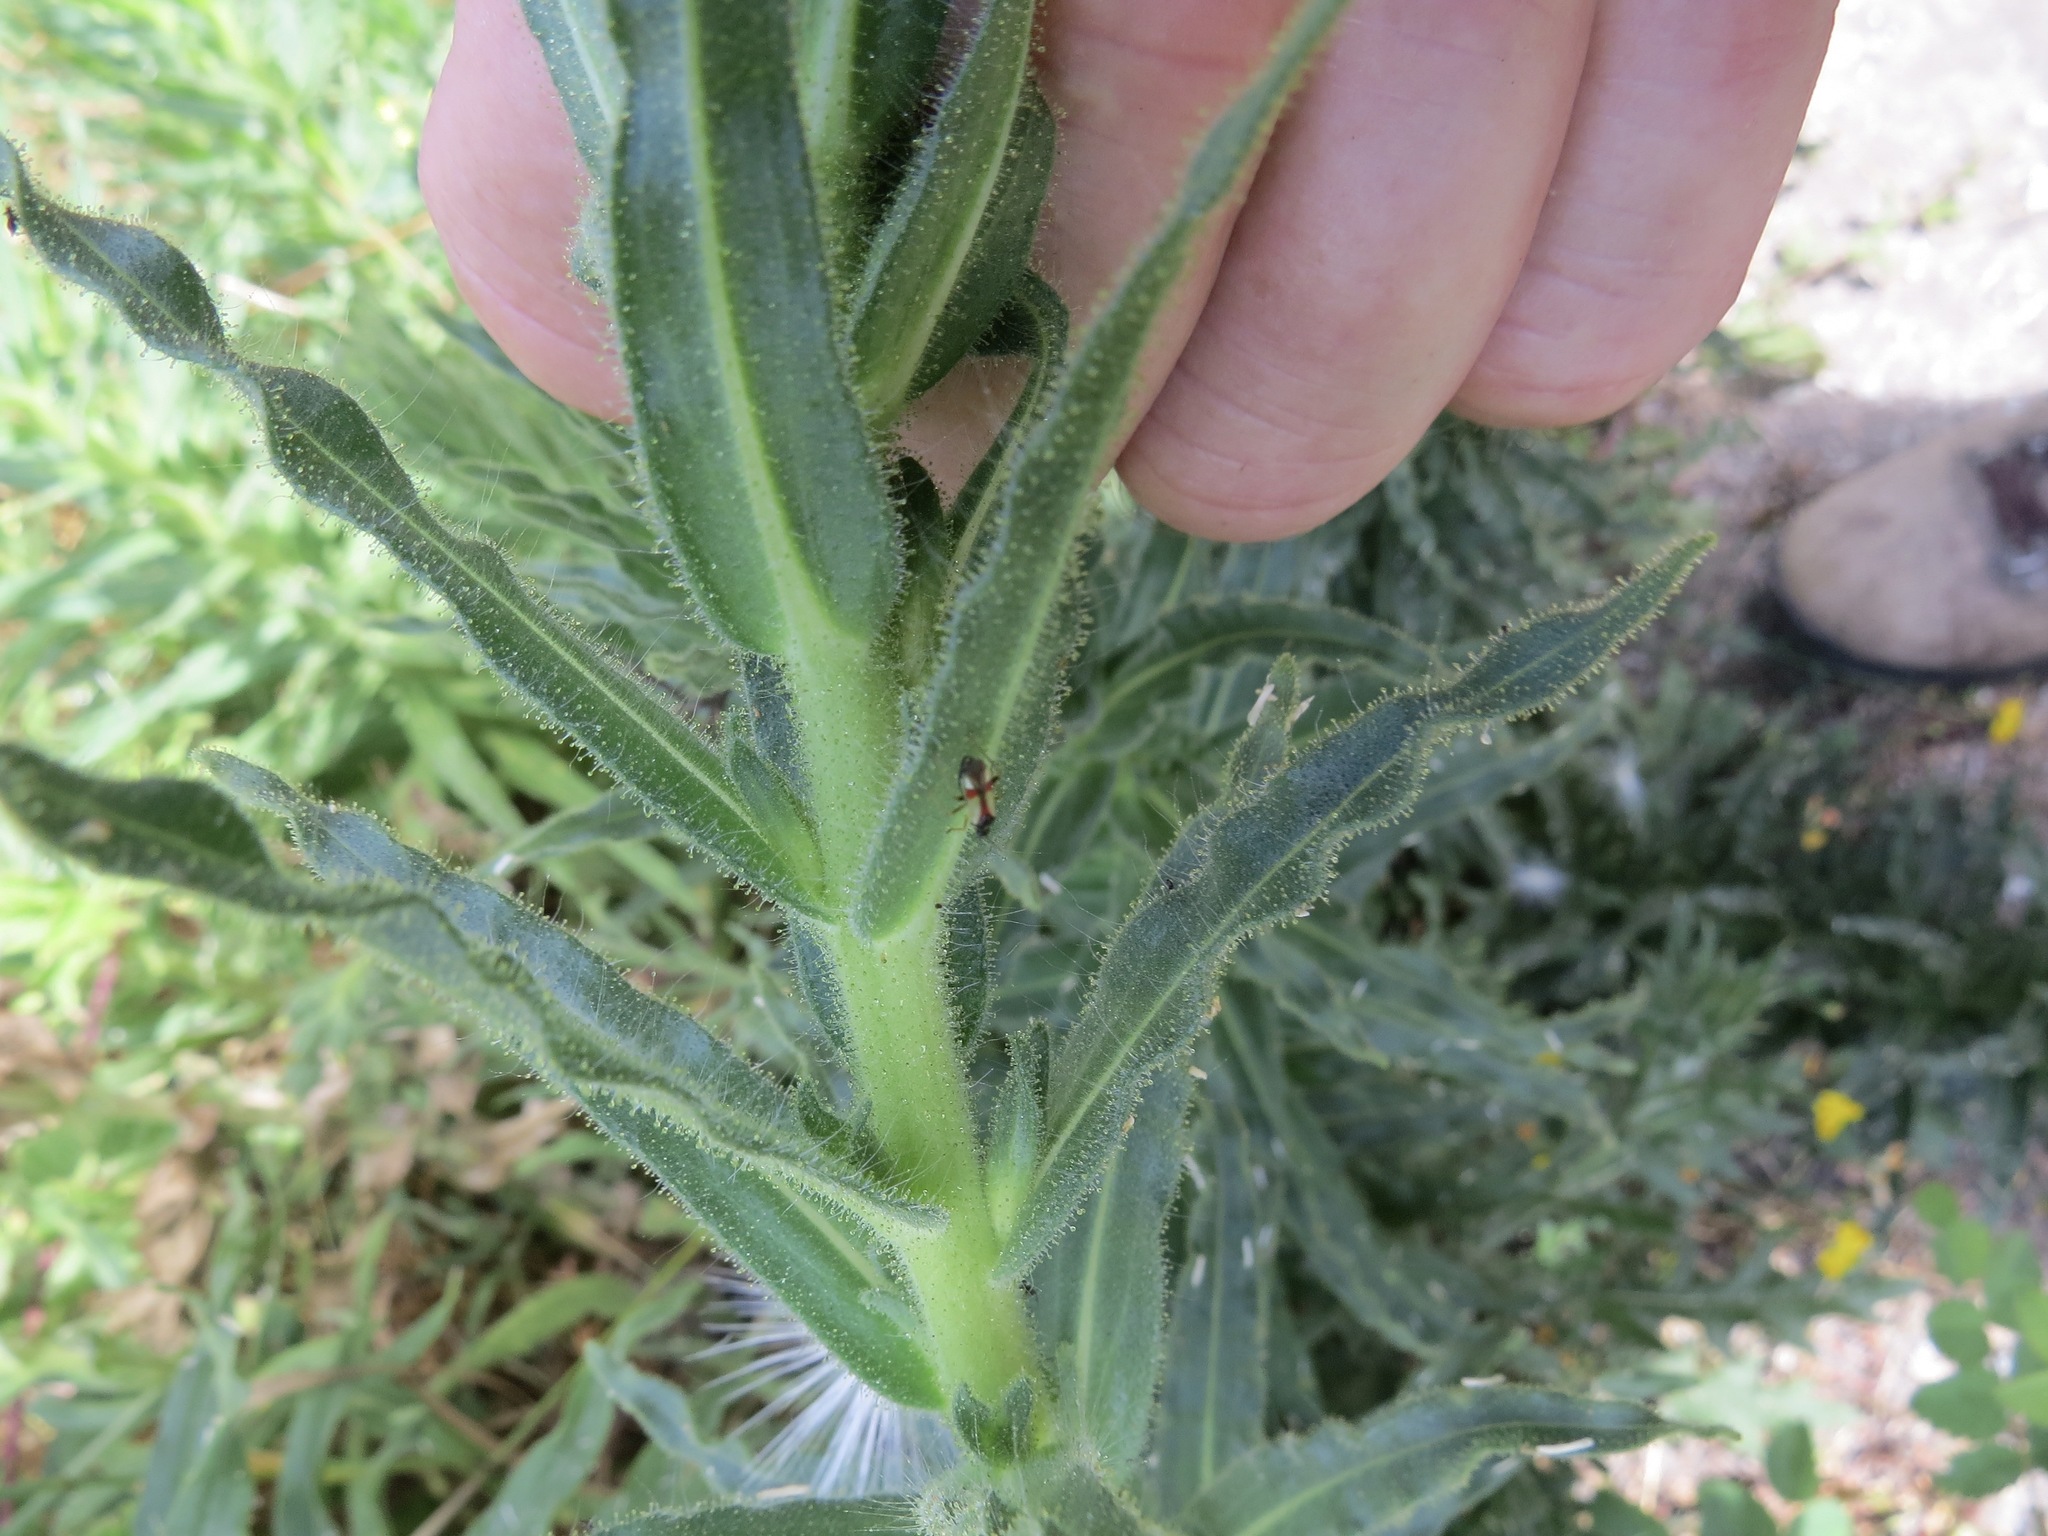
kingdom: Animalia
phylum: Arthropoda
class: Insecta
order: Hemiptera
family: Miridae
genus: Tupiocoris
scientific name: Tupiocoris californicus
